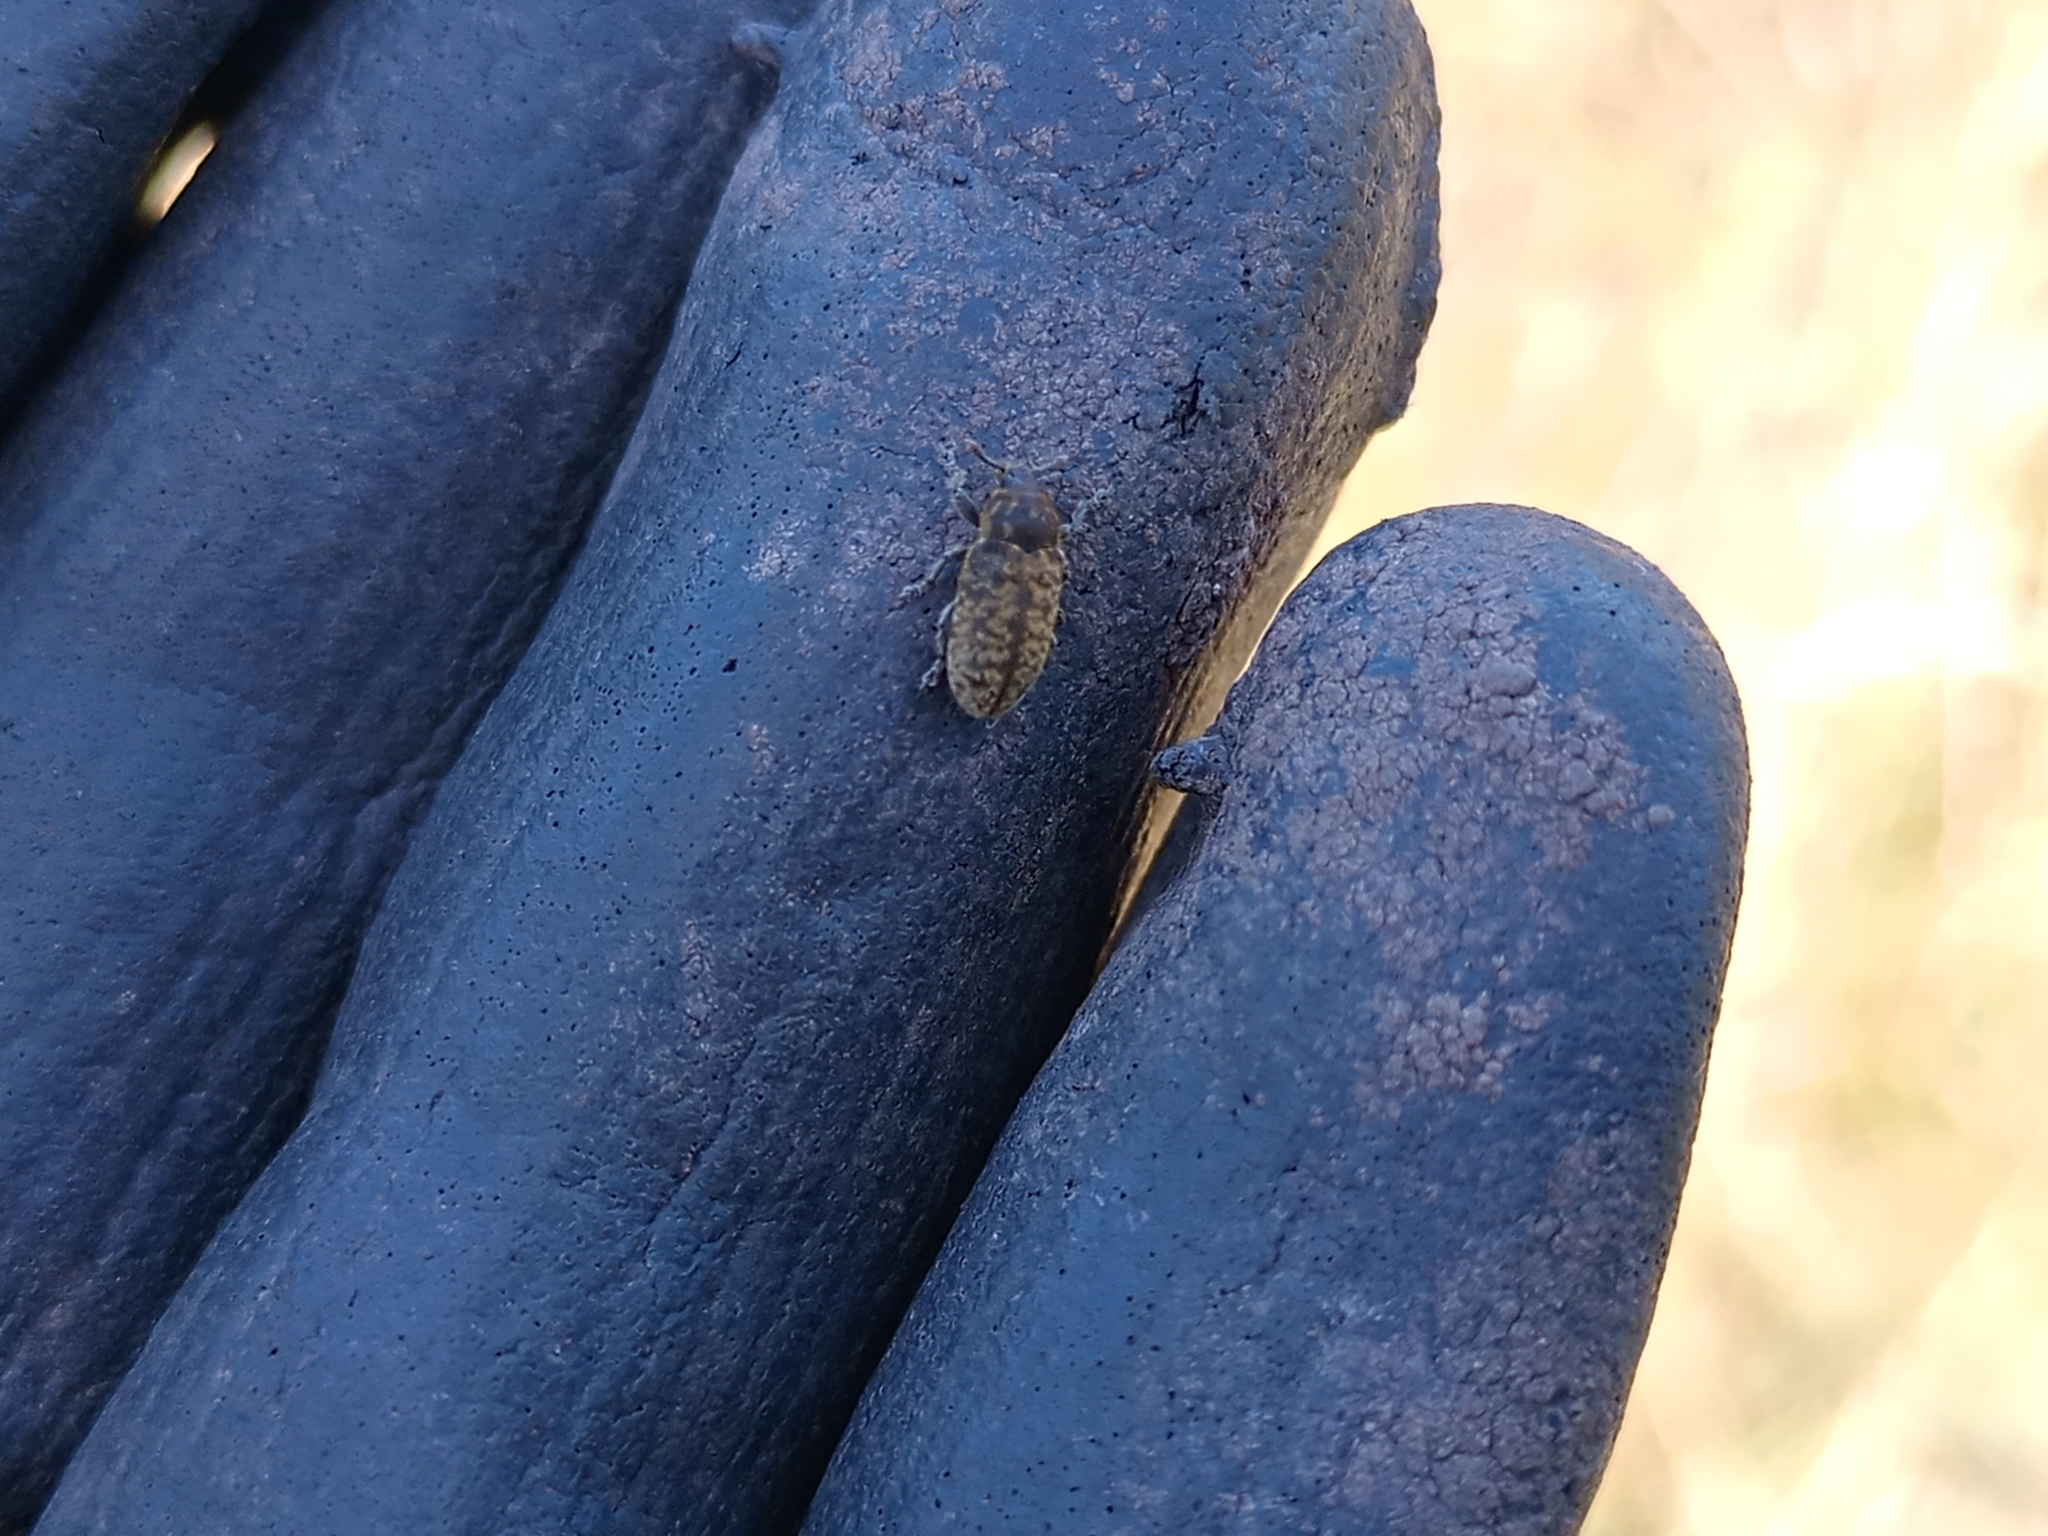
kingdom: Animalia
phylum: Arthropoda
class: Insecta
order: Coleoptera
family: Curculionidae
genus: Rhinocyllus
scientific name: Rhinocyllus conicus
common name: Weevil
